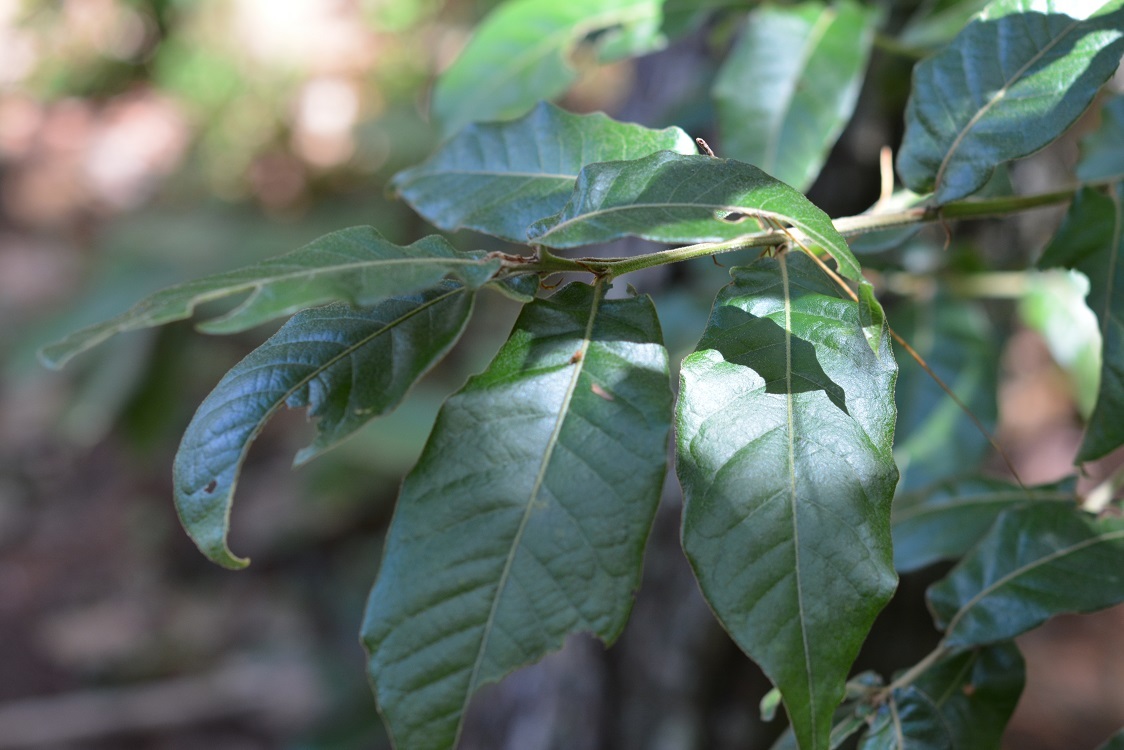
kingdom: Plantae
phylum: Tracheophyta
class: Magnoliopsida
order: Fagales
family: Fagaceae
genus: Quercus
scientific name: Quercus crispipilis
